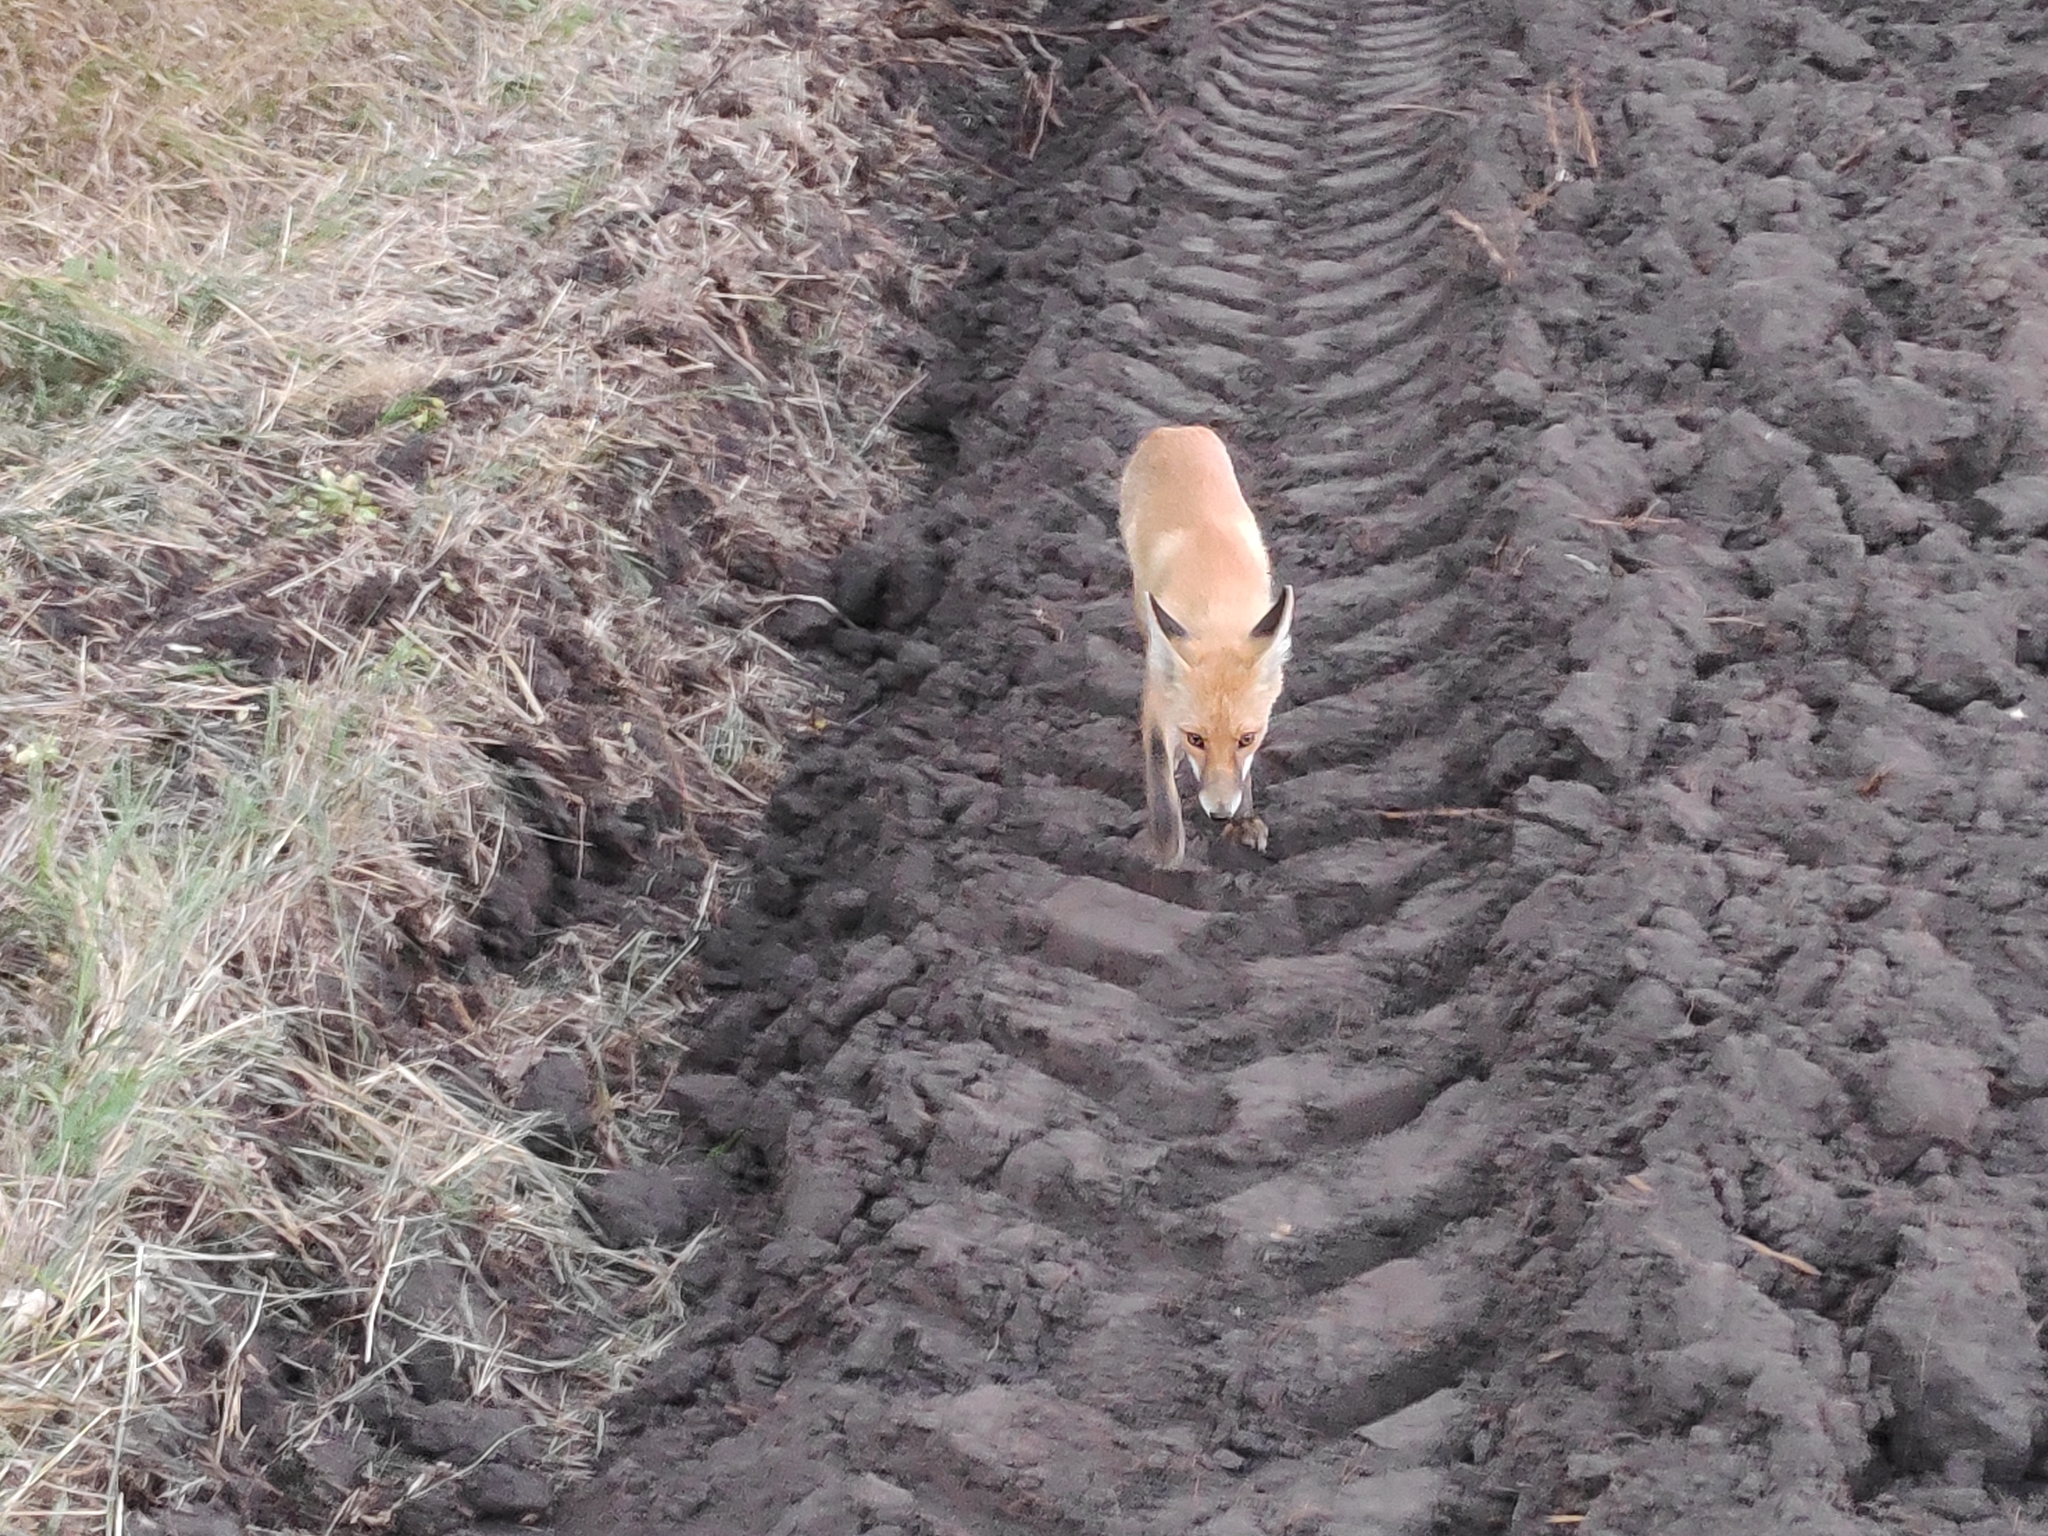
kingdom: Animalia
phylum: Chordata
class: Mammalia
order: Carnivora
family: Canidae
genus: Vulpes
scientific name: Vulpes vulpes
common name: Red fox
